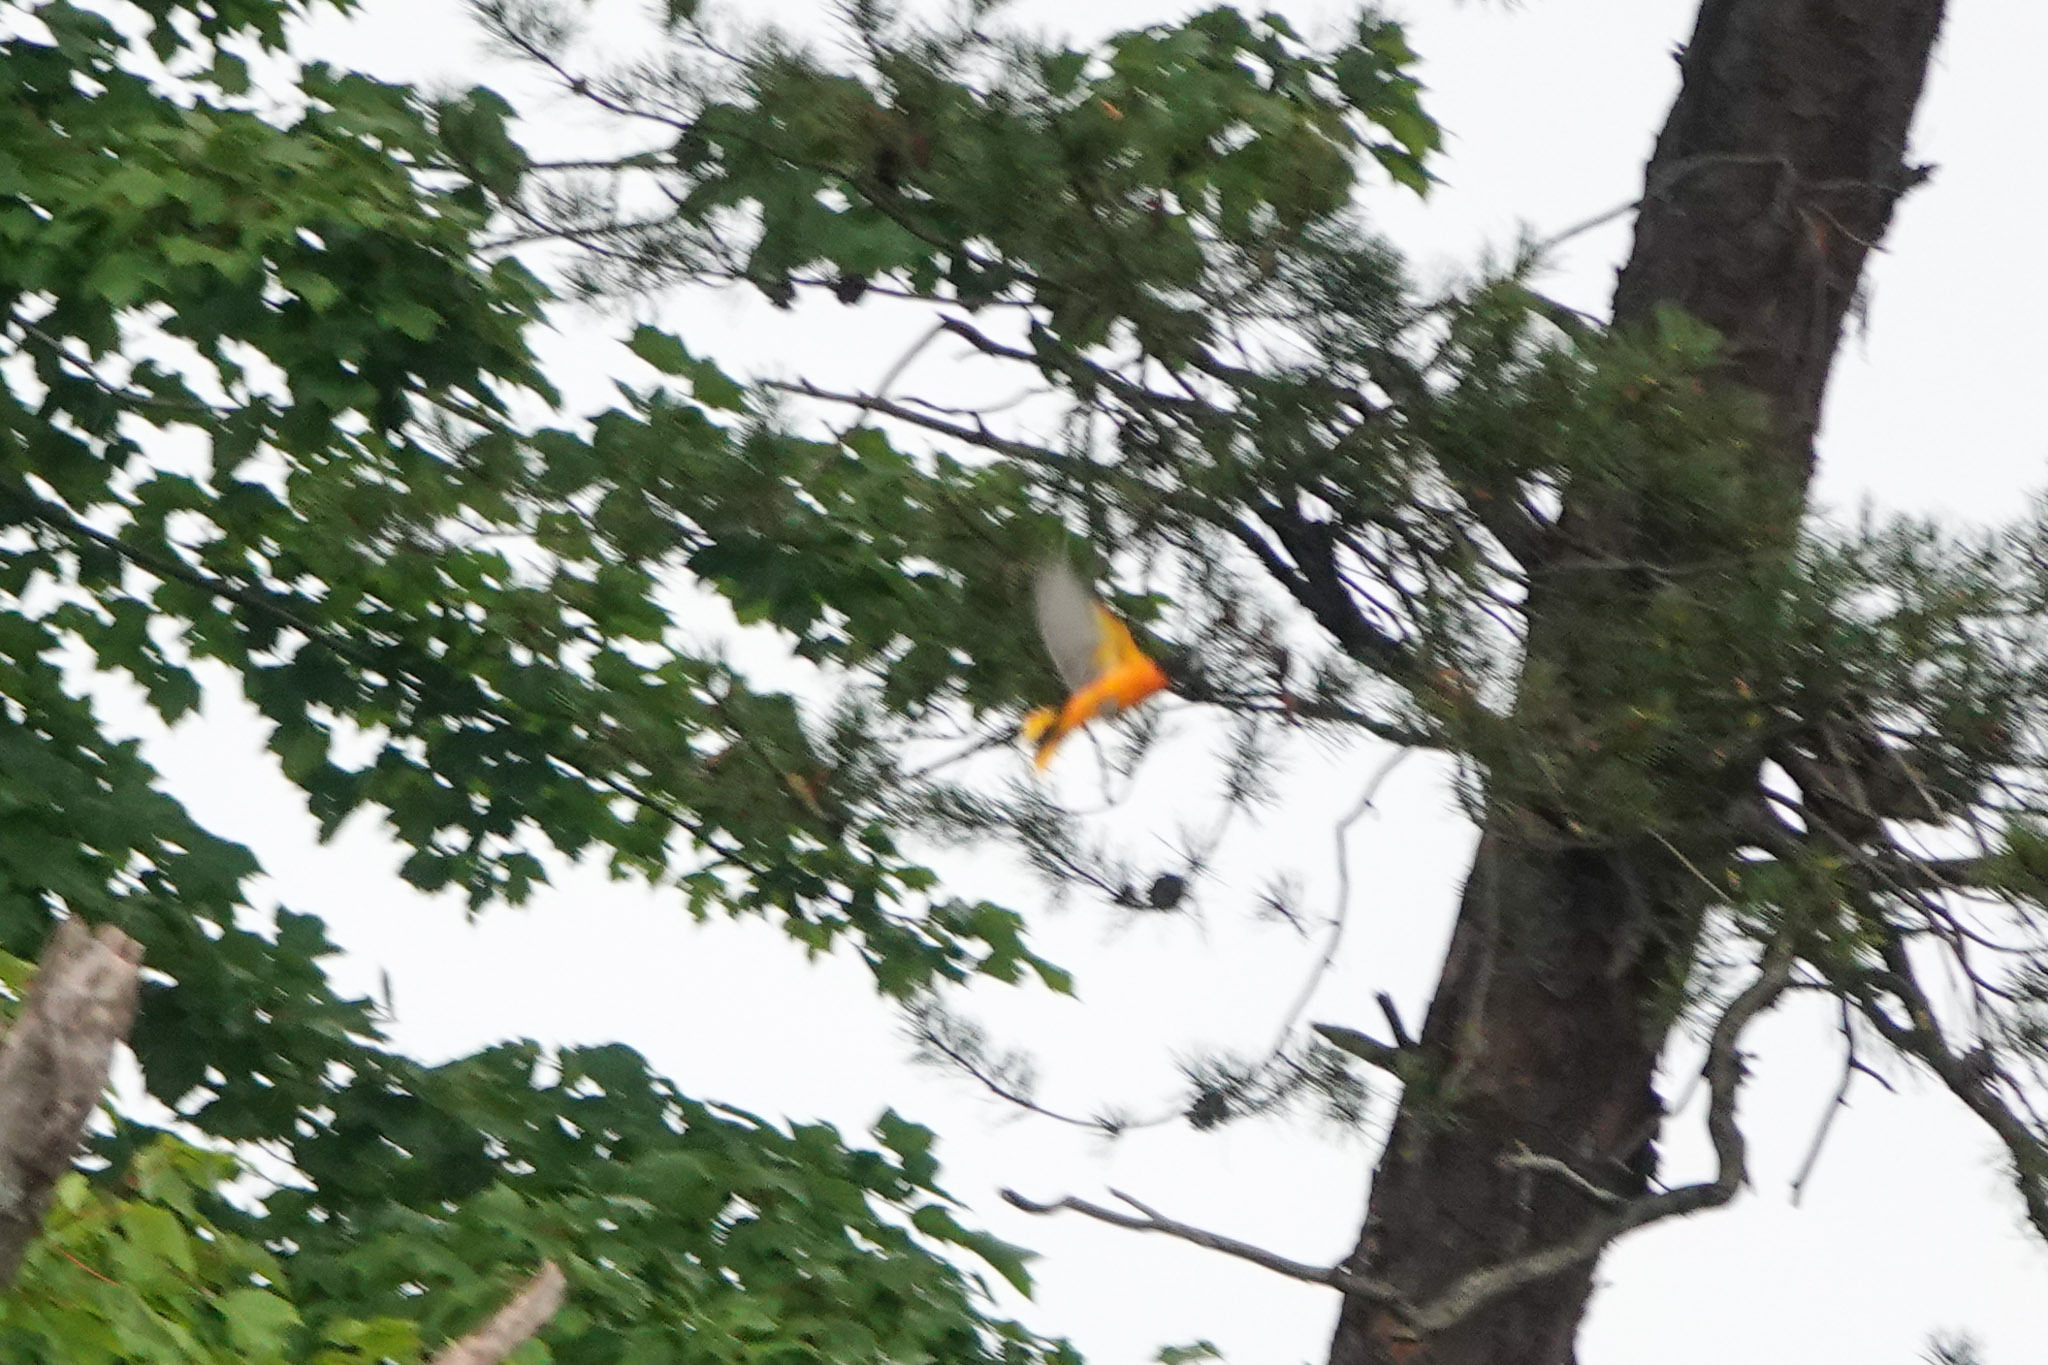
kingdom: Animalia
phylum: Chordata
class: Aves
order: Passeriformes
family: Icteridae
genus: Icterus
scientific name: Icterus galbula
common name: Baltimore oriole
